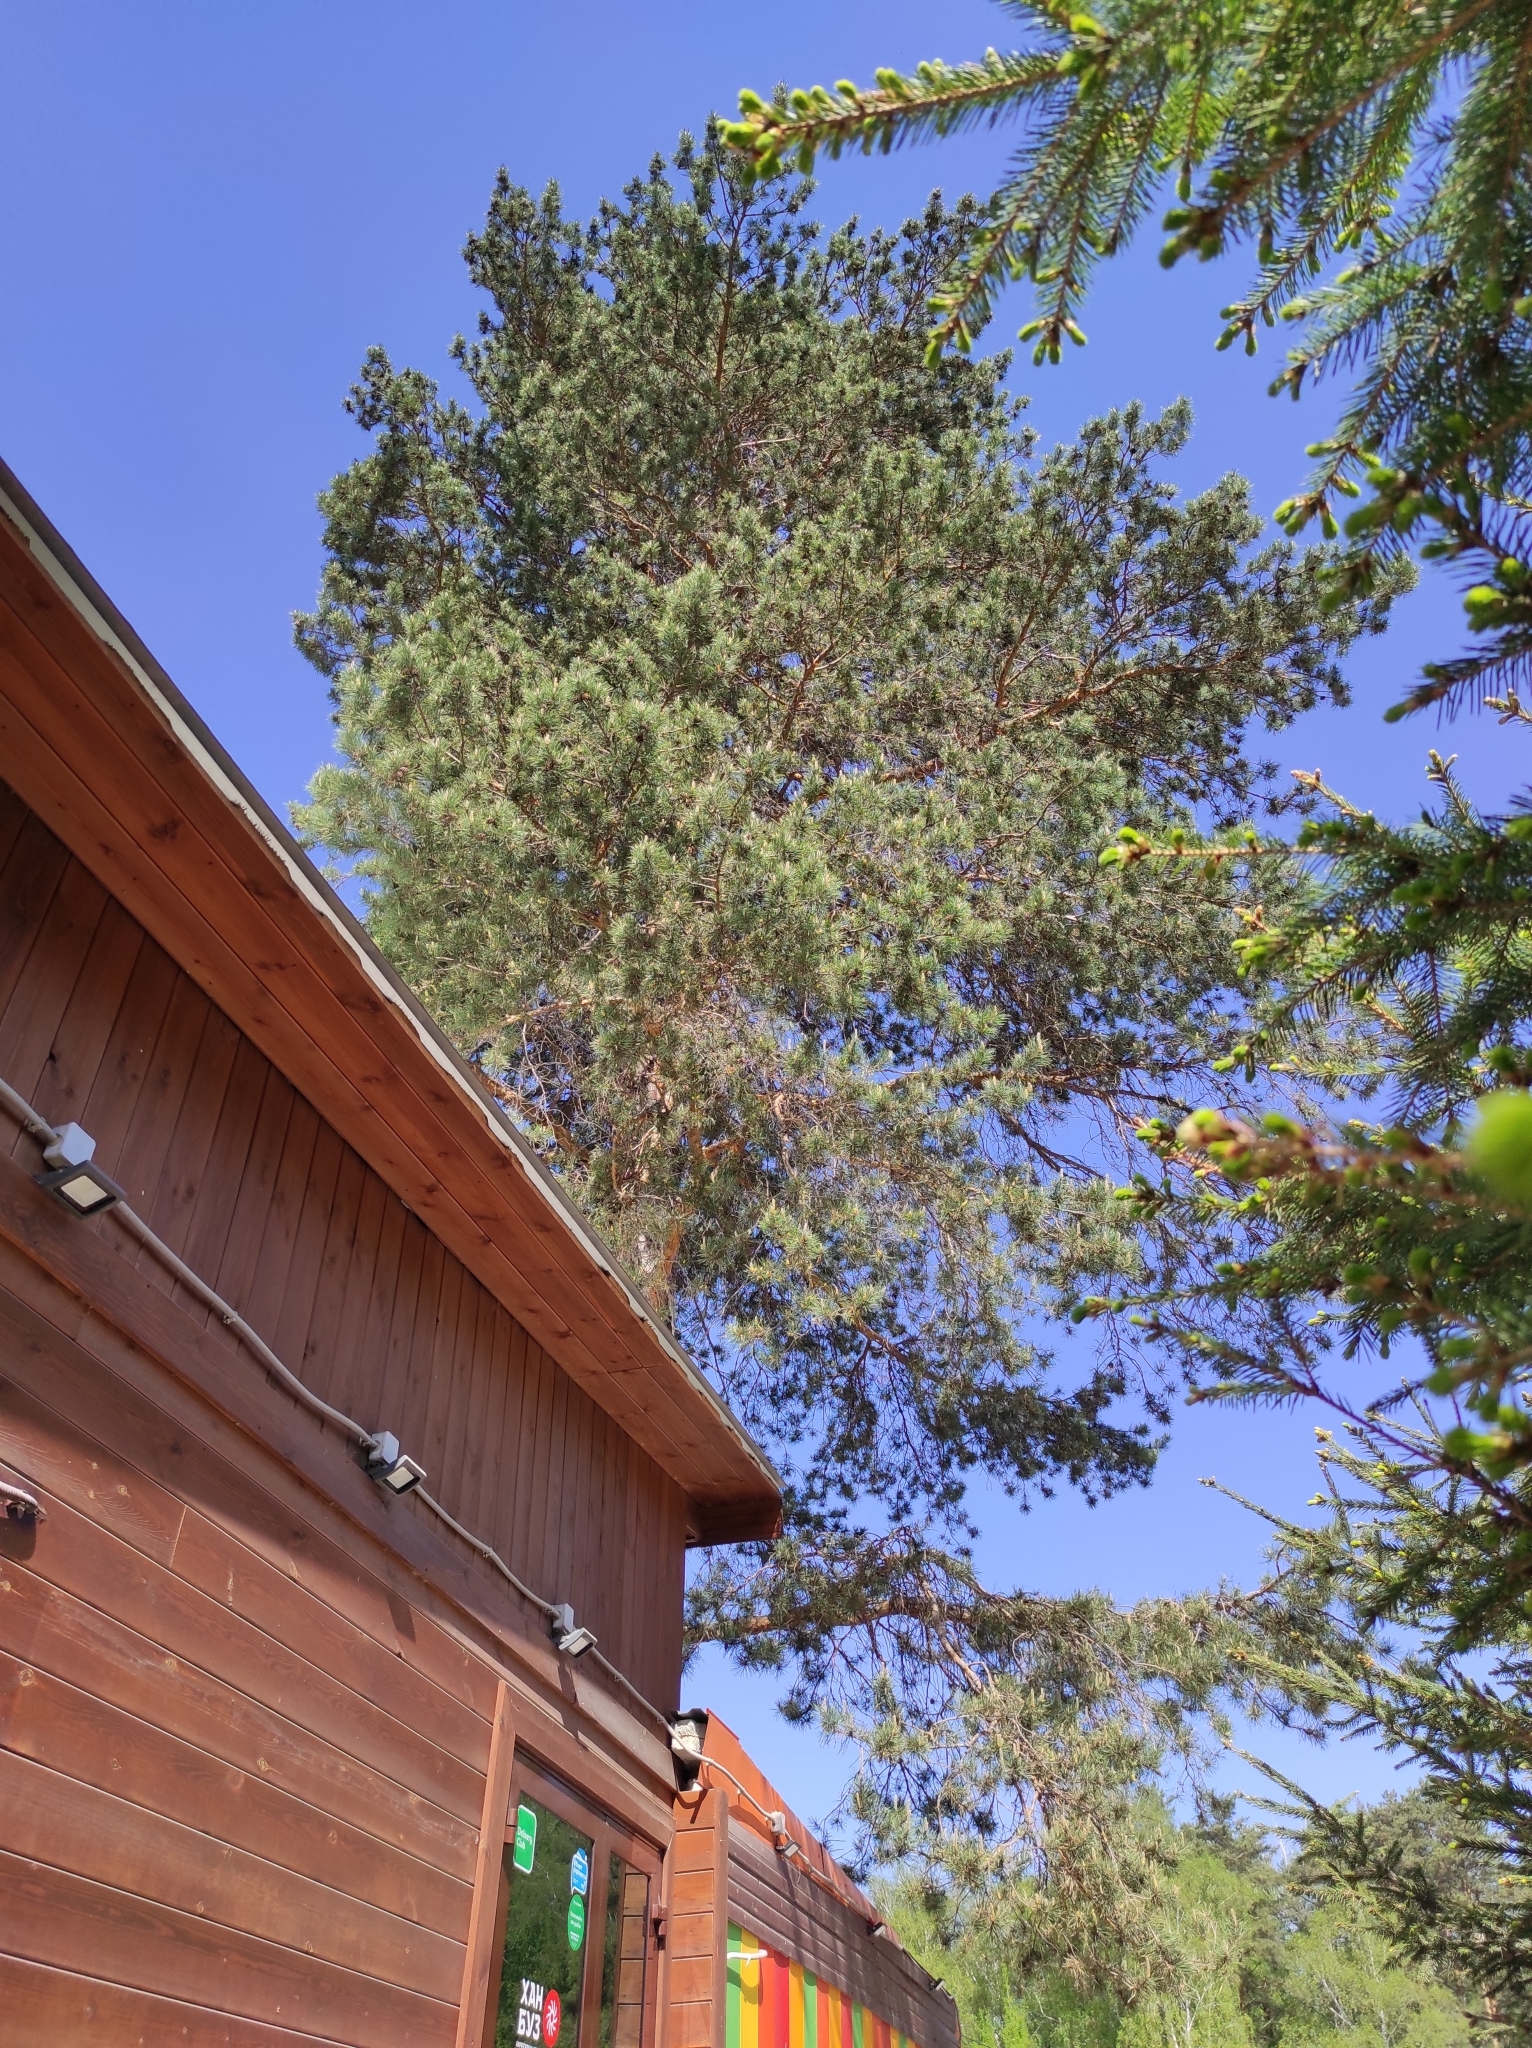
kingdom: Plantae
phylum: Tracheophyta
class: Pinopsida
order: Pinales
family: Pinaceae
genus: Pinus
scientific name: Pinus sylvestris
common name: Scots pine
